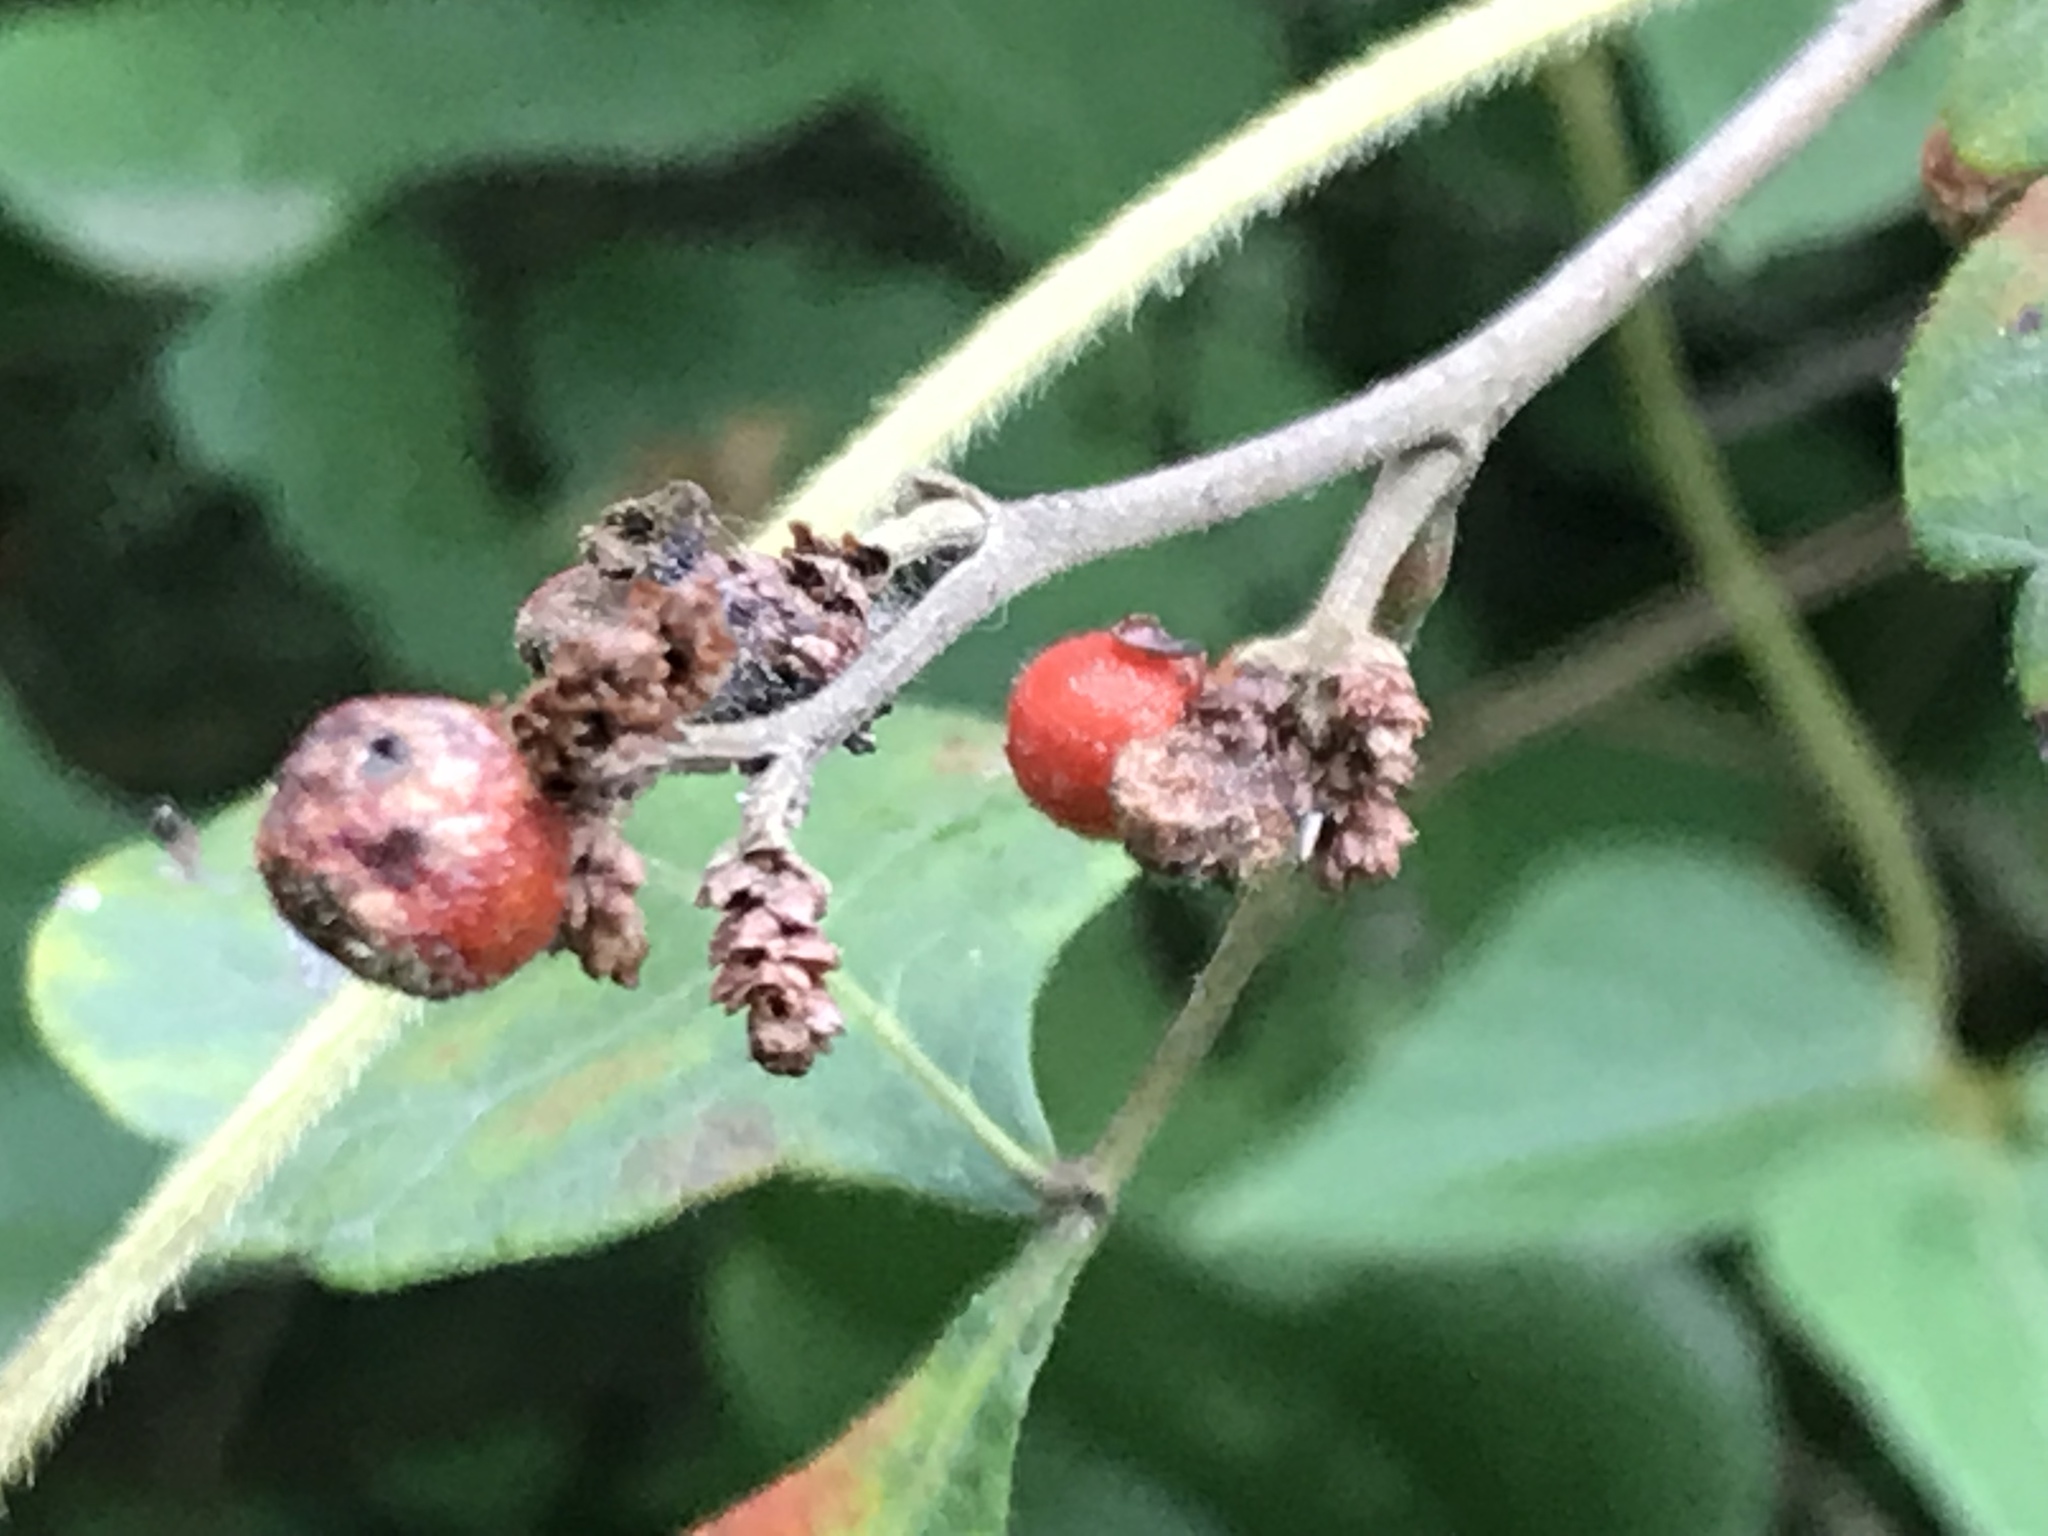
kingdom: Plantae
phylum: Tracheophyta
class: Magnoliopsida
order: Sapindales
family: Anacardiaceae
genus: Rhus
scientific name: Rhus aromatica
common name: Aromatic sumac
